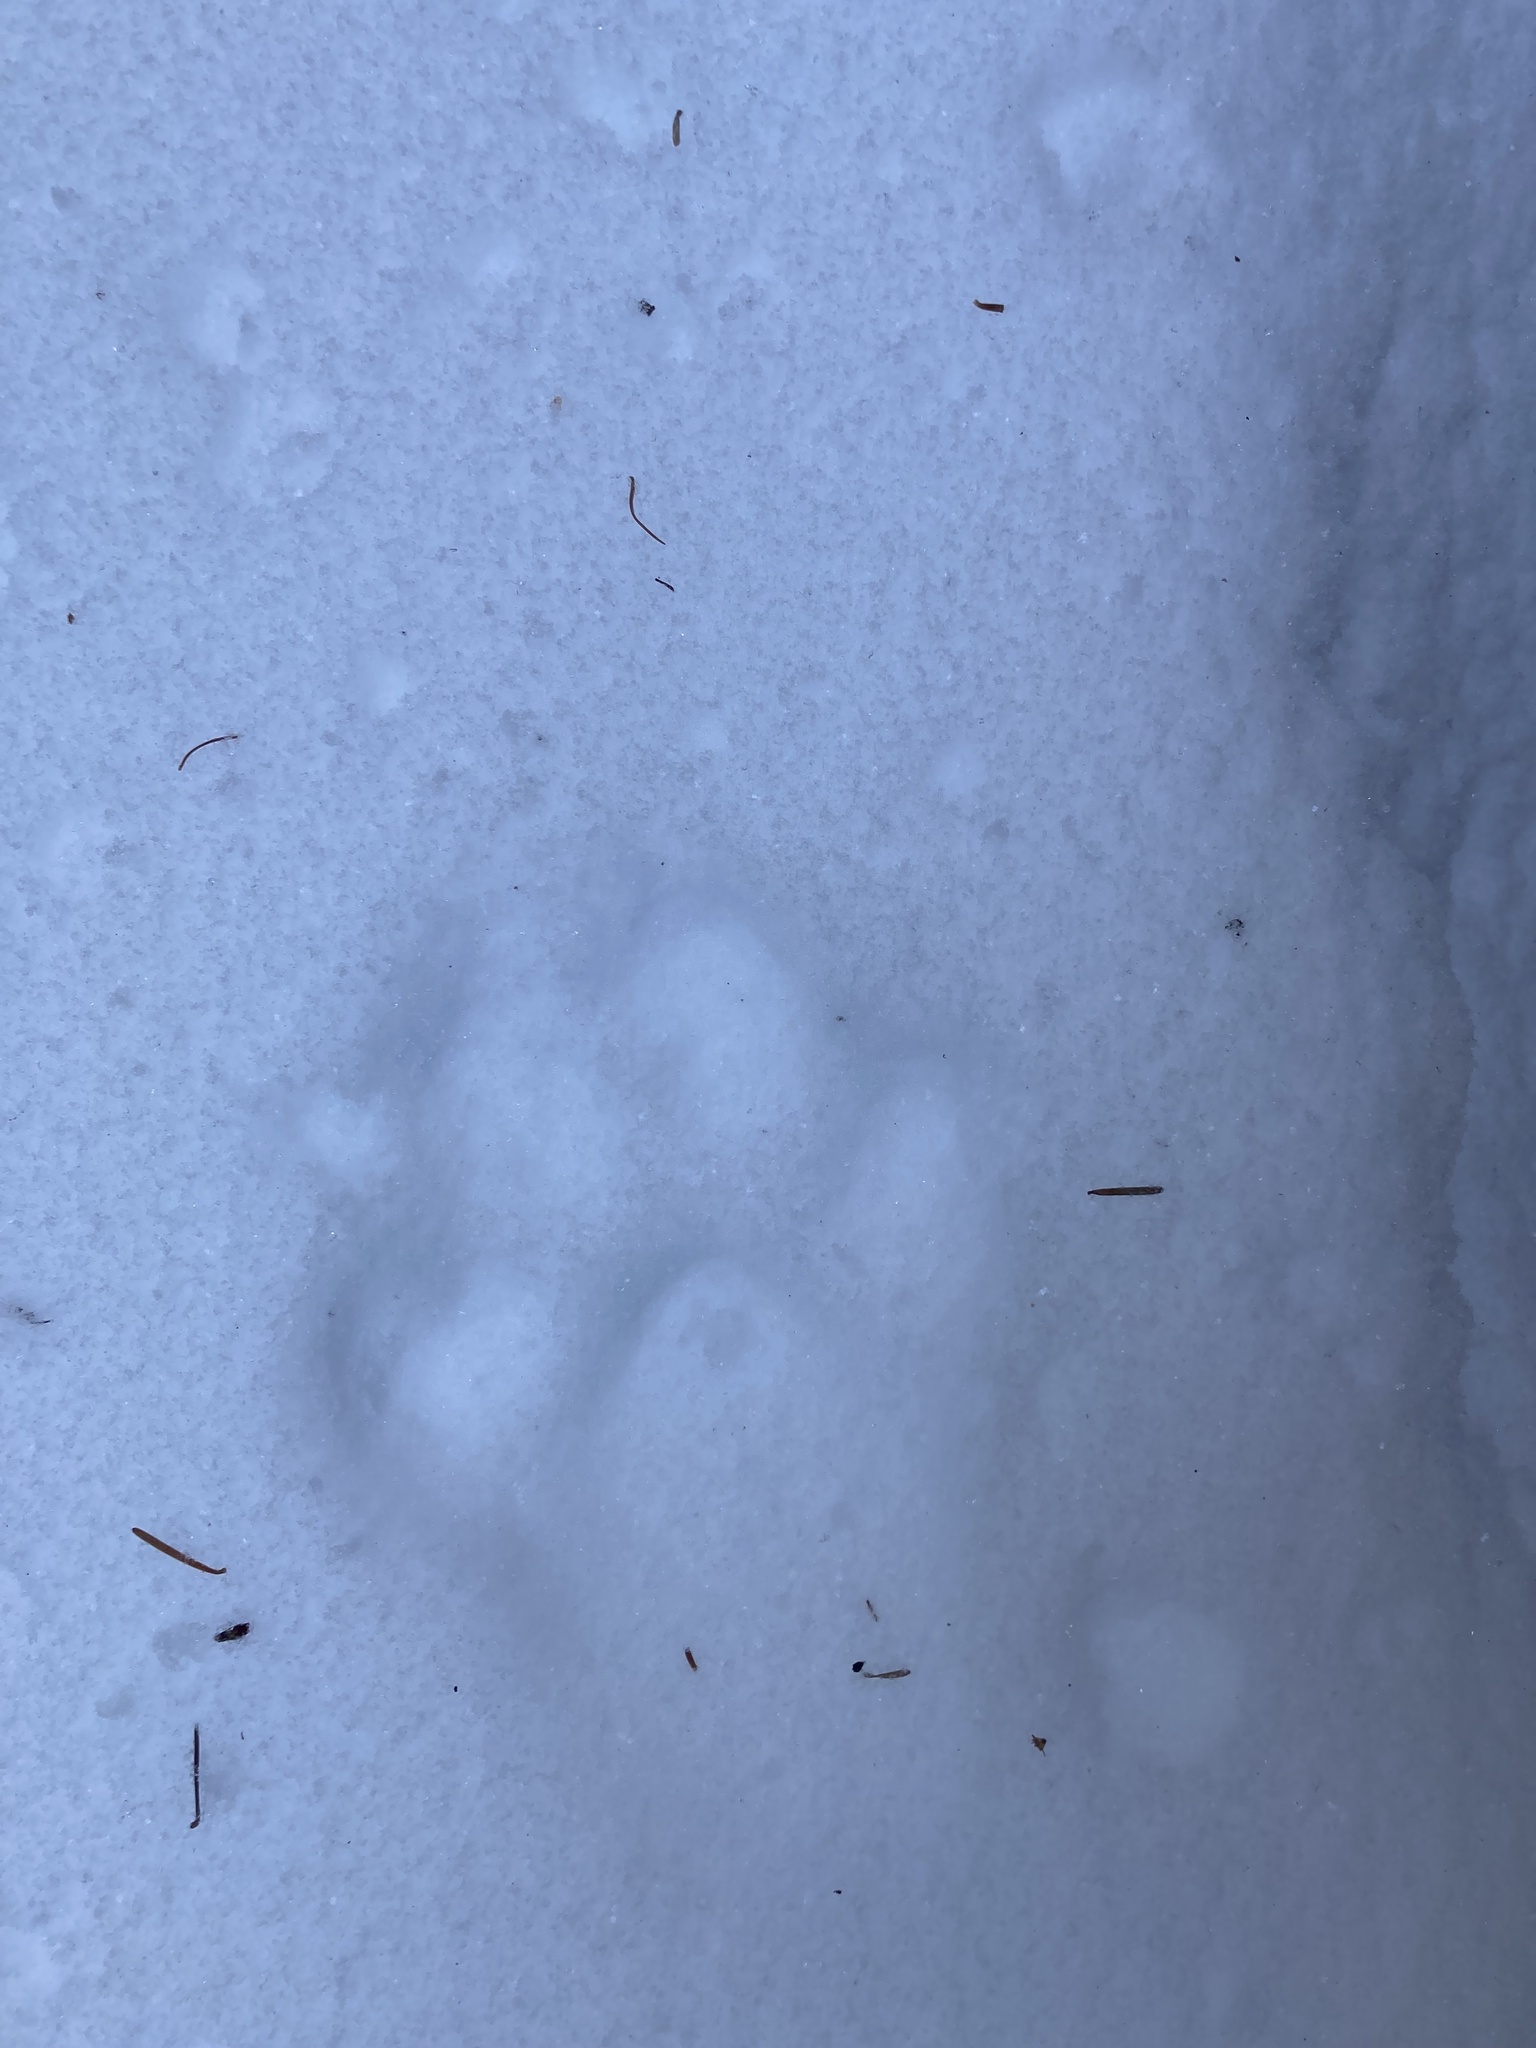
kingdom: Animalia
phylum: Chordata
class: Mammalia
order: Carnivora
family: Felidae
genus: Lynx
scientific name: Lynx canadensis
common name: Canadian lynx
